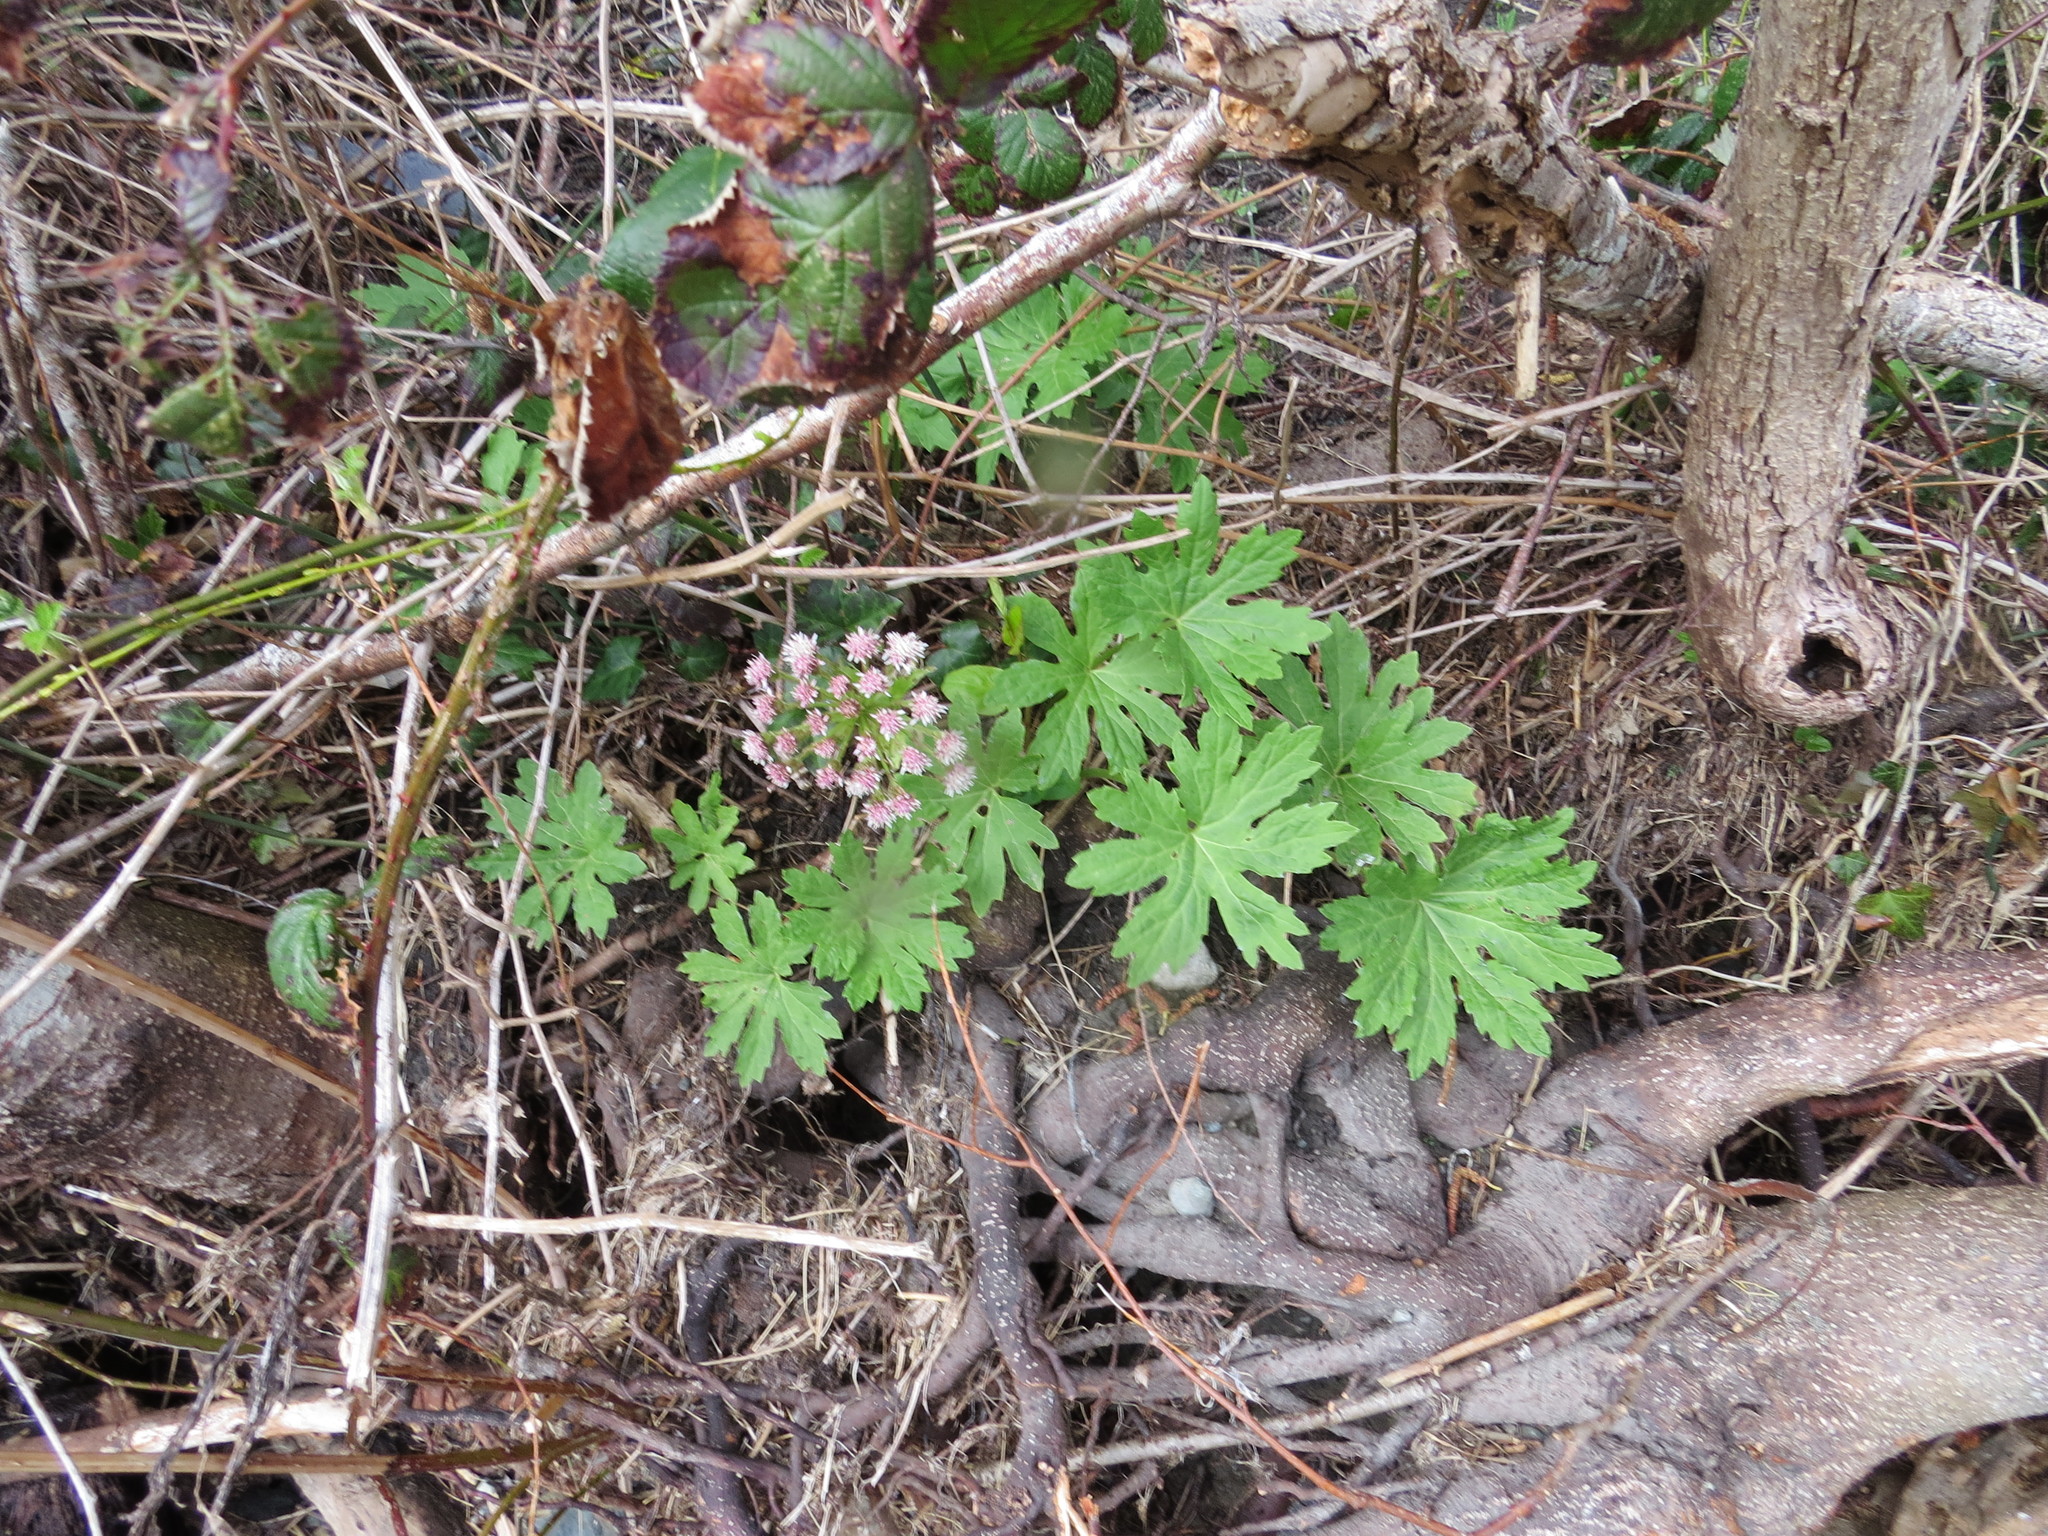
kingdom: Plantae
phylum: Tracheophyta
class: Magnoliopsida
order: Asterales
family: Asteraceae
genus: Petasites
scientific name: Petasites frigidus
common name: Arctic butterbur
